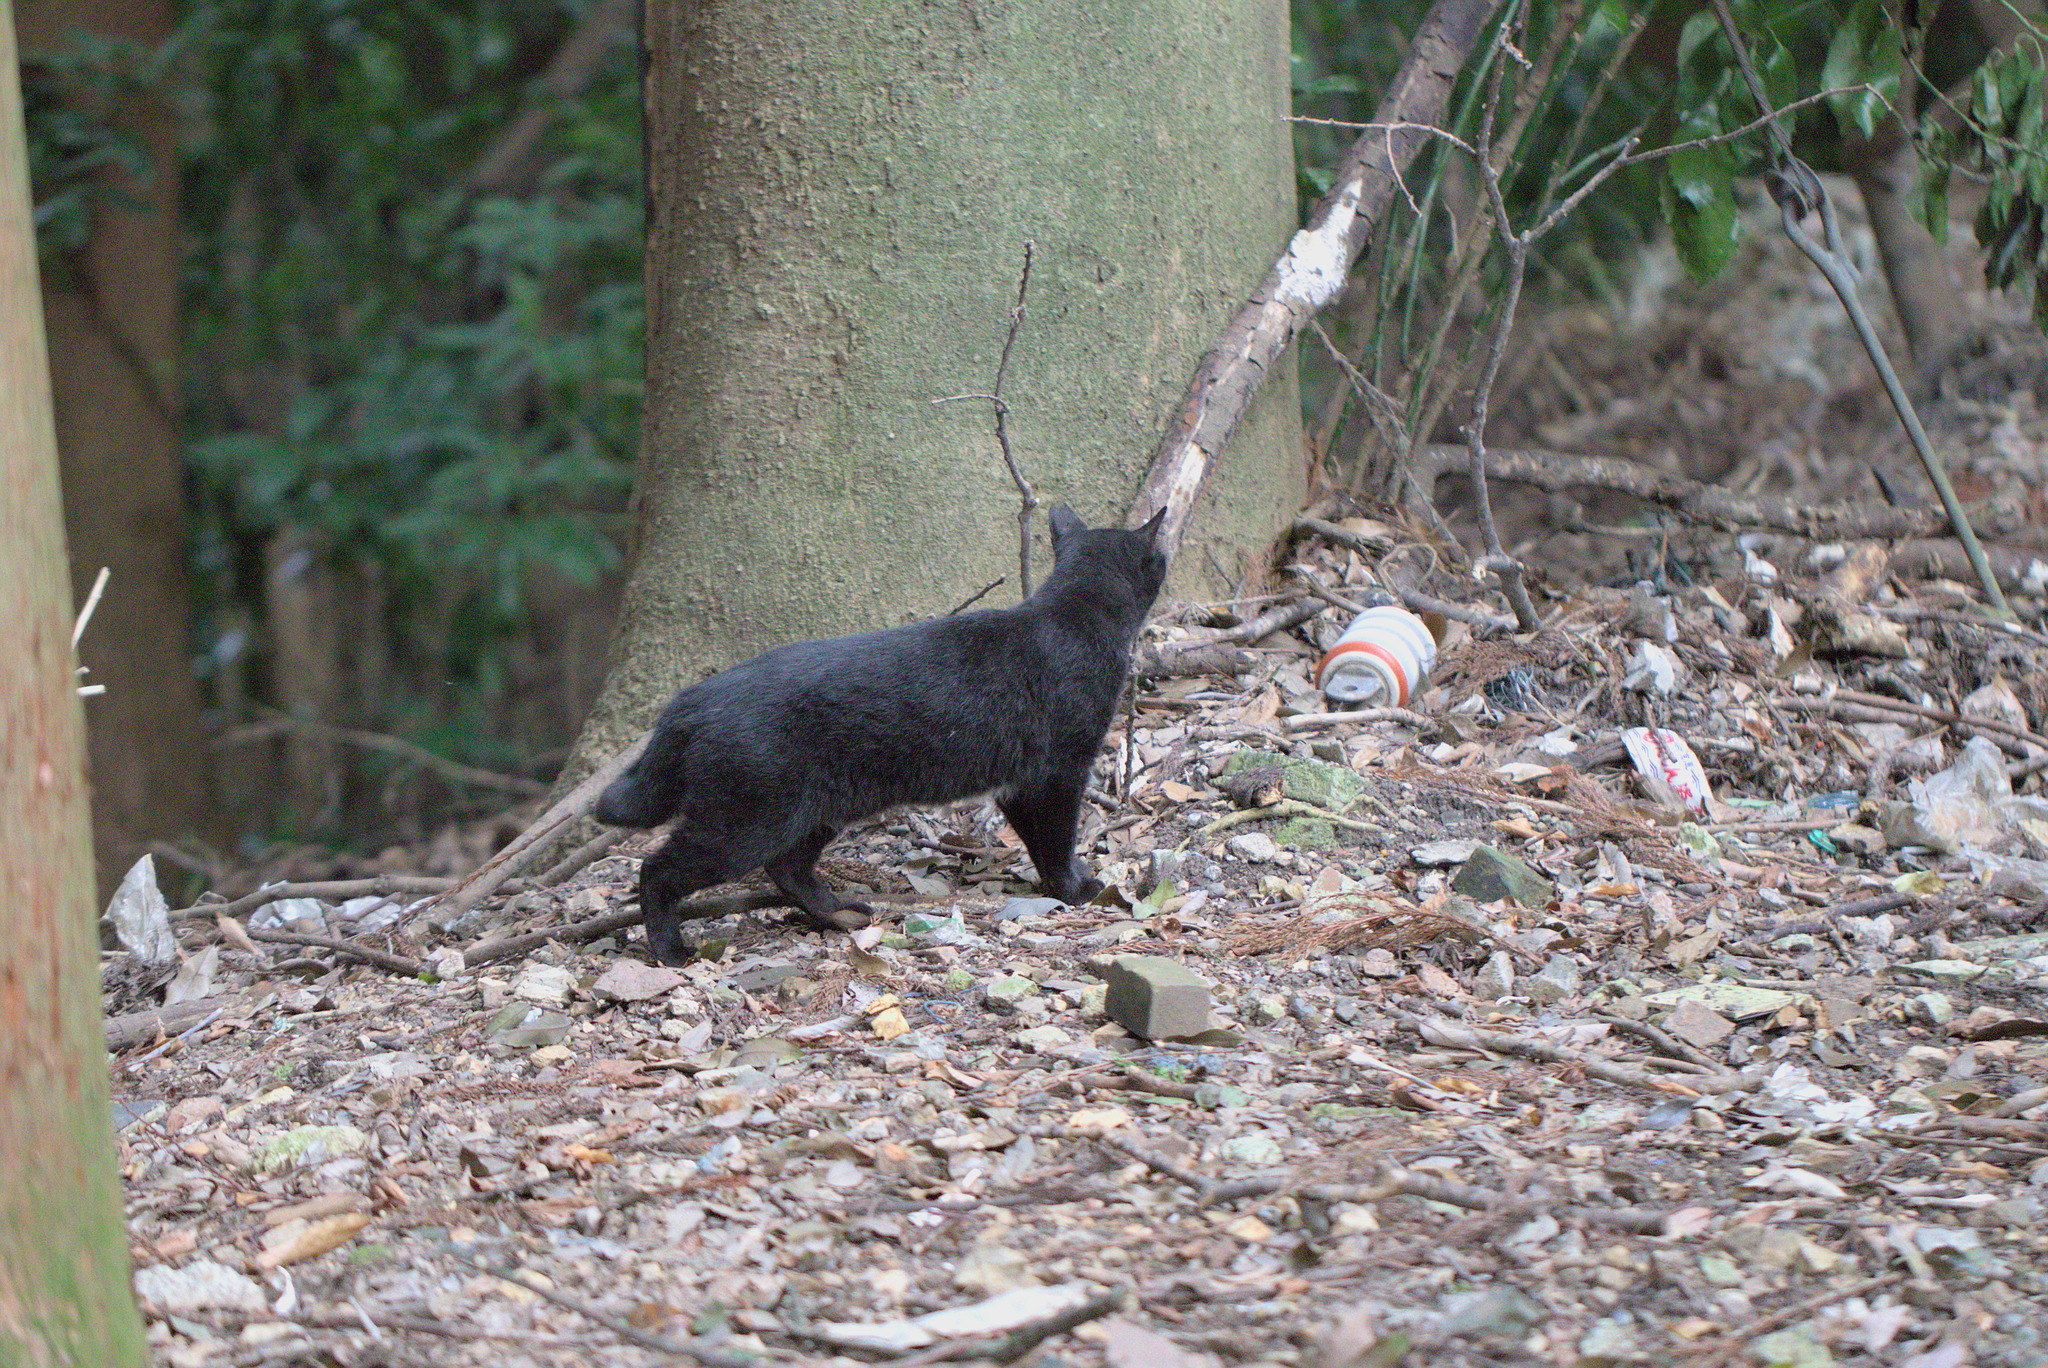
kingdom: Animalia
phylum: Chordata
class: Mammalia
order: Carnivora
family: Felidae
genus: Felis
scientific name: Felis catus
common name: Domestic cat
